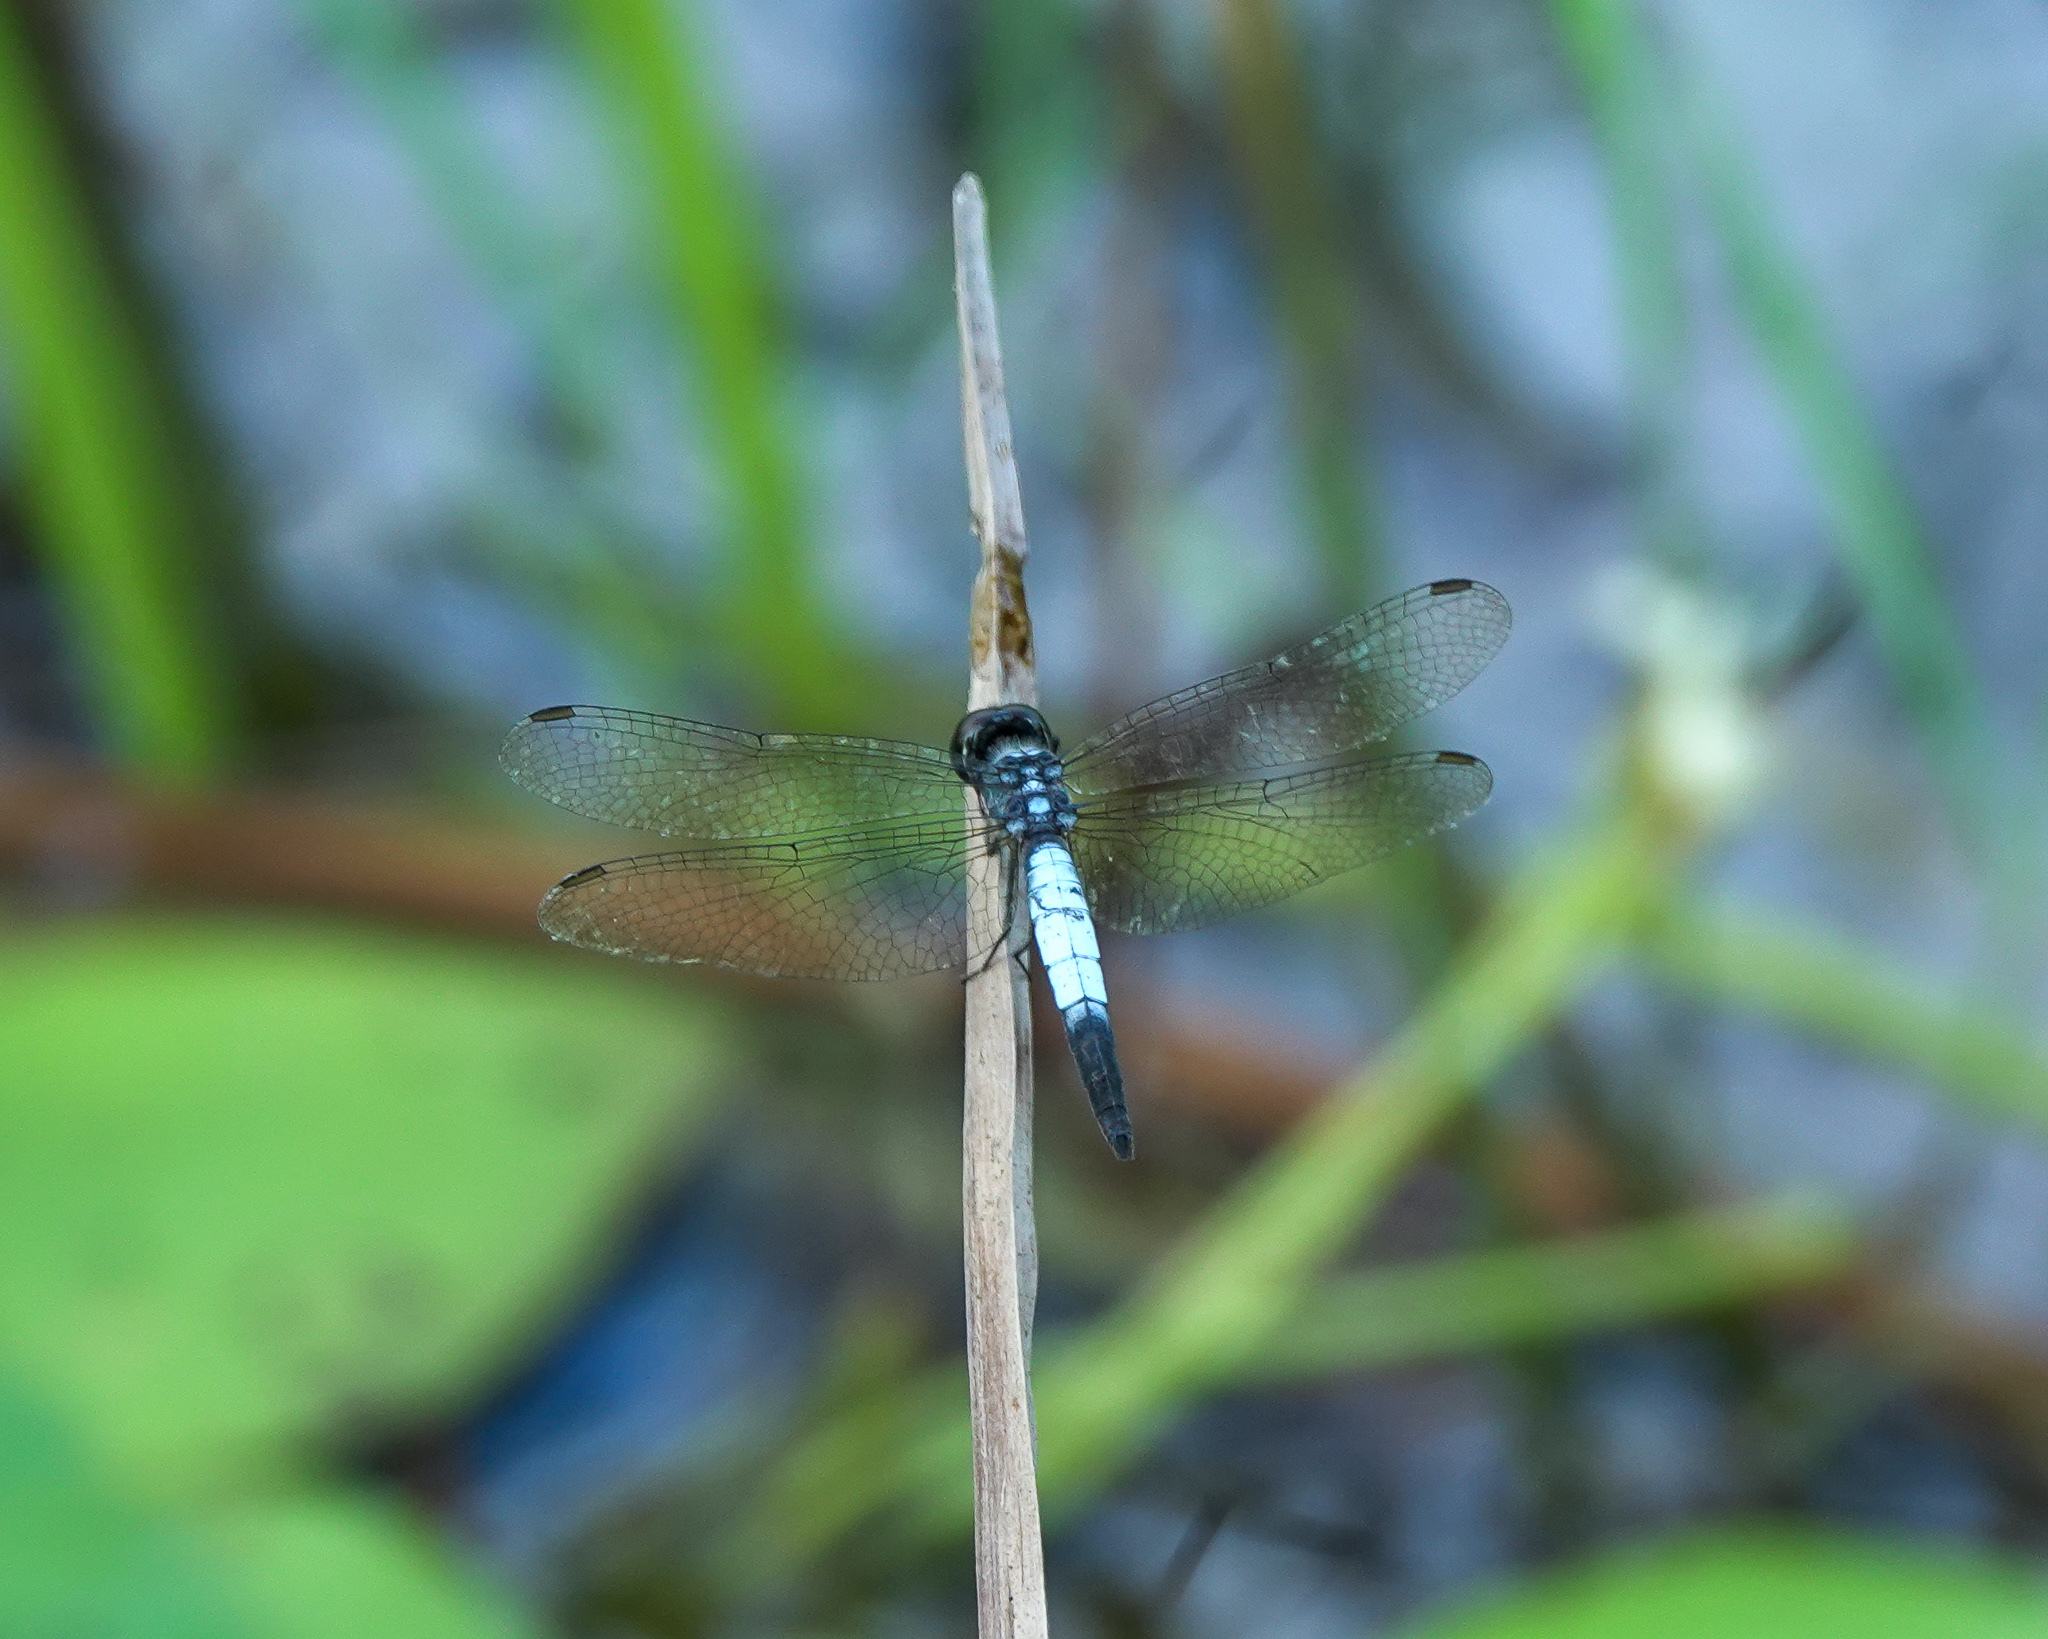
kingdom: Animalia
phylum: Arthropoda
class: Insecta
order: Odonata
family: Libellulidae
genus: Brachydiplax
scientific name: Brachydiplax farinosa
